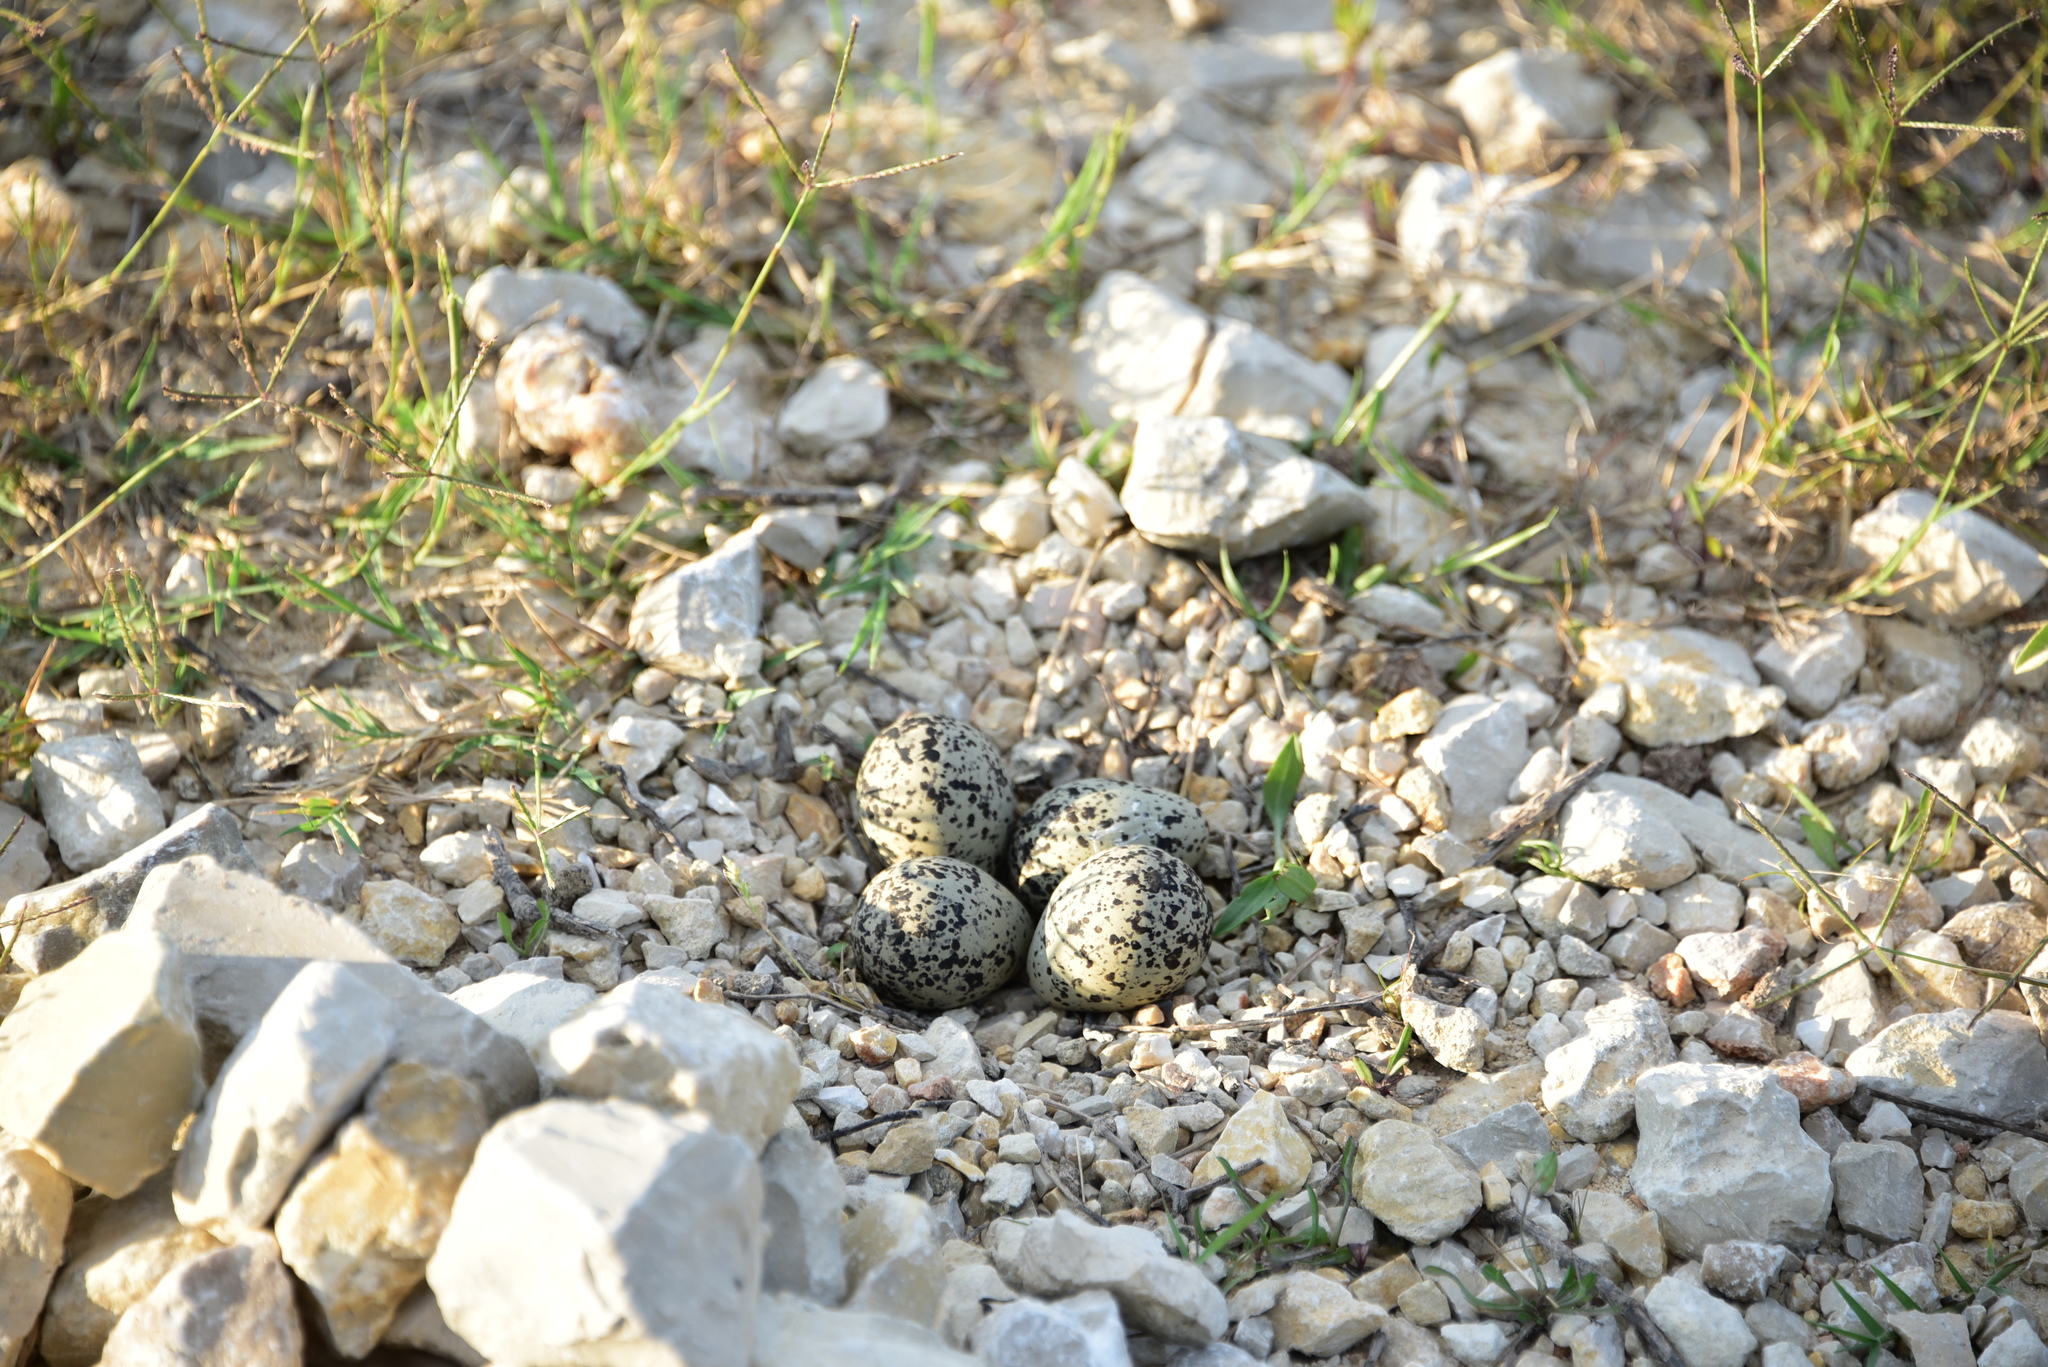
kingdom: Animalia
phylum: Chordata
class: Aves
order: Charadriiformes
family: Charadriidae
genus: Charadrius
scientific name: Charadrius vociferus
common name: Killdeer
